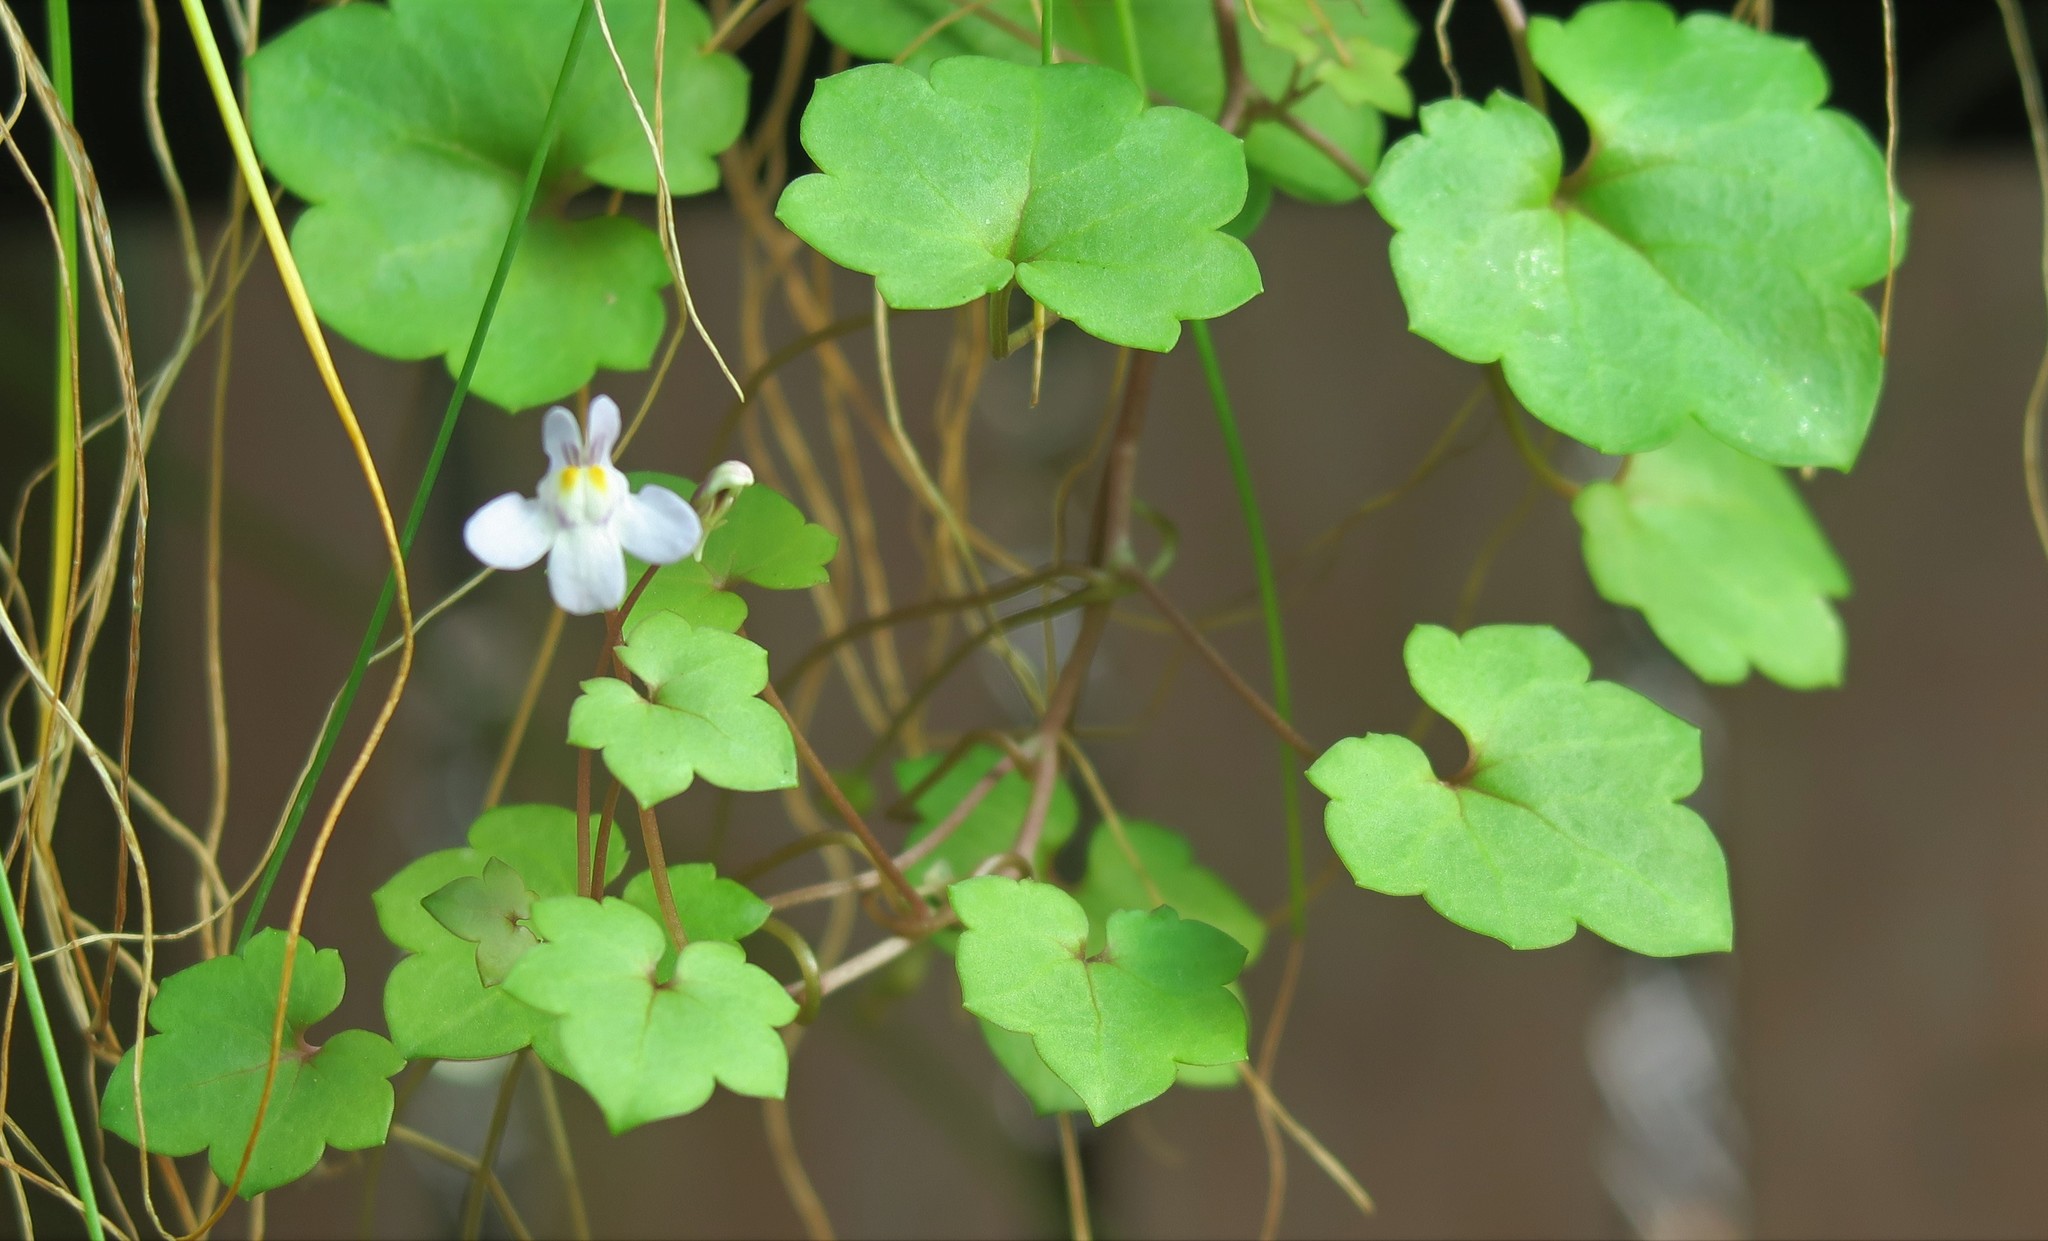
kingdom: Plantae
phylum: Tracheophyta
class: Magnoliopsida
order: Lamiales
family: Plantaginaceae
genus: Cymbalaria
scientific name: Cymbalaria muralis
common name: Ivy-leaved toadflax
